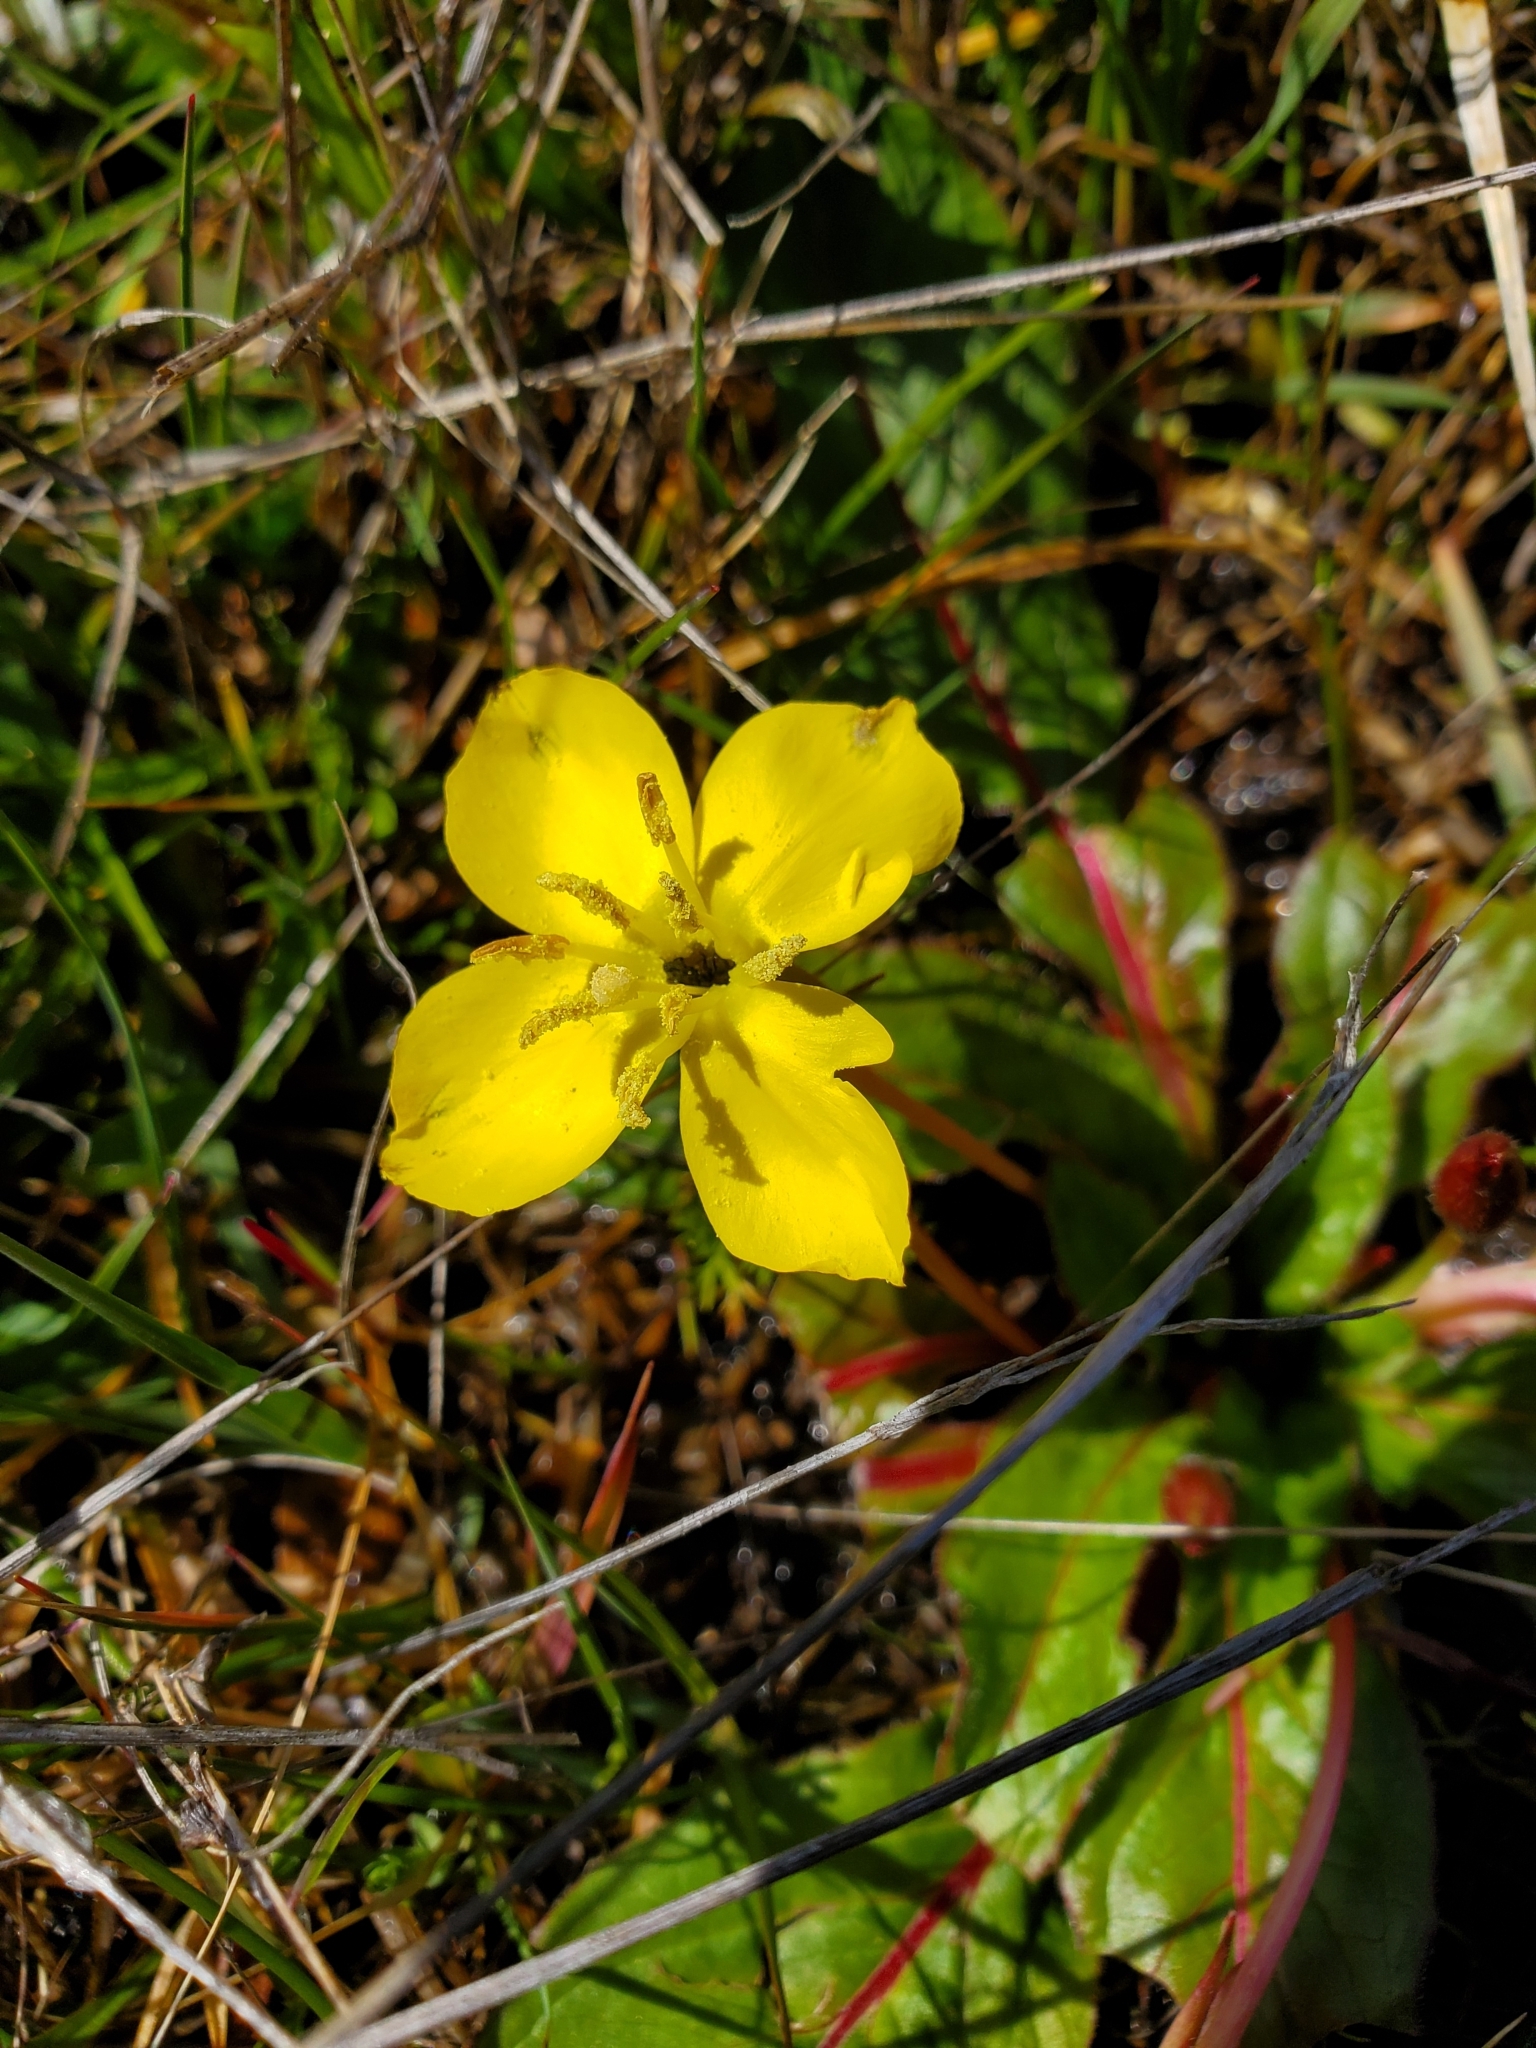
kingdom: Plantae
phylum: Tracheophyta
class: Magnoliopsida
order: Myrtales
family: Onagraceae
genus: Taraxia
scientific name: Taraxia ovata
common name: Goldeneggs
